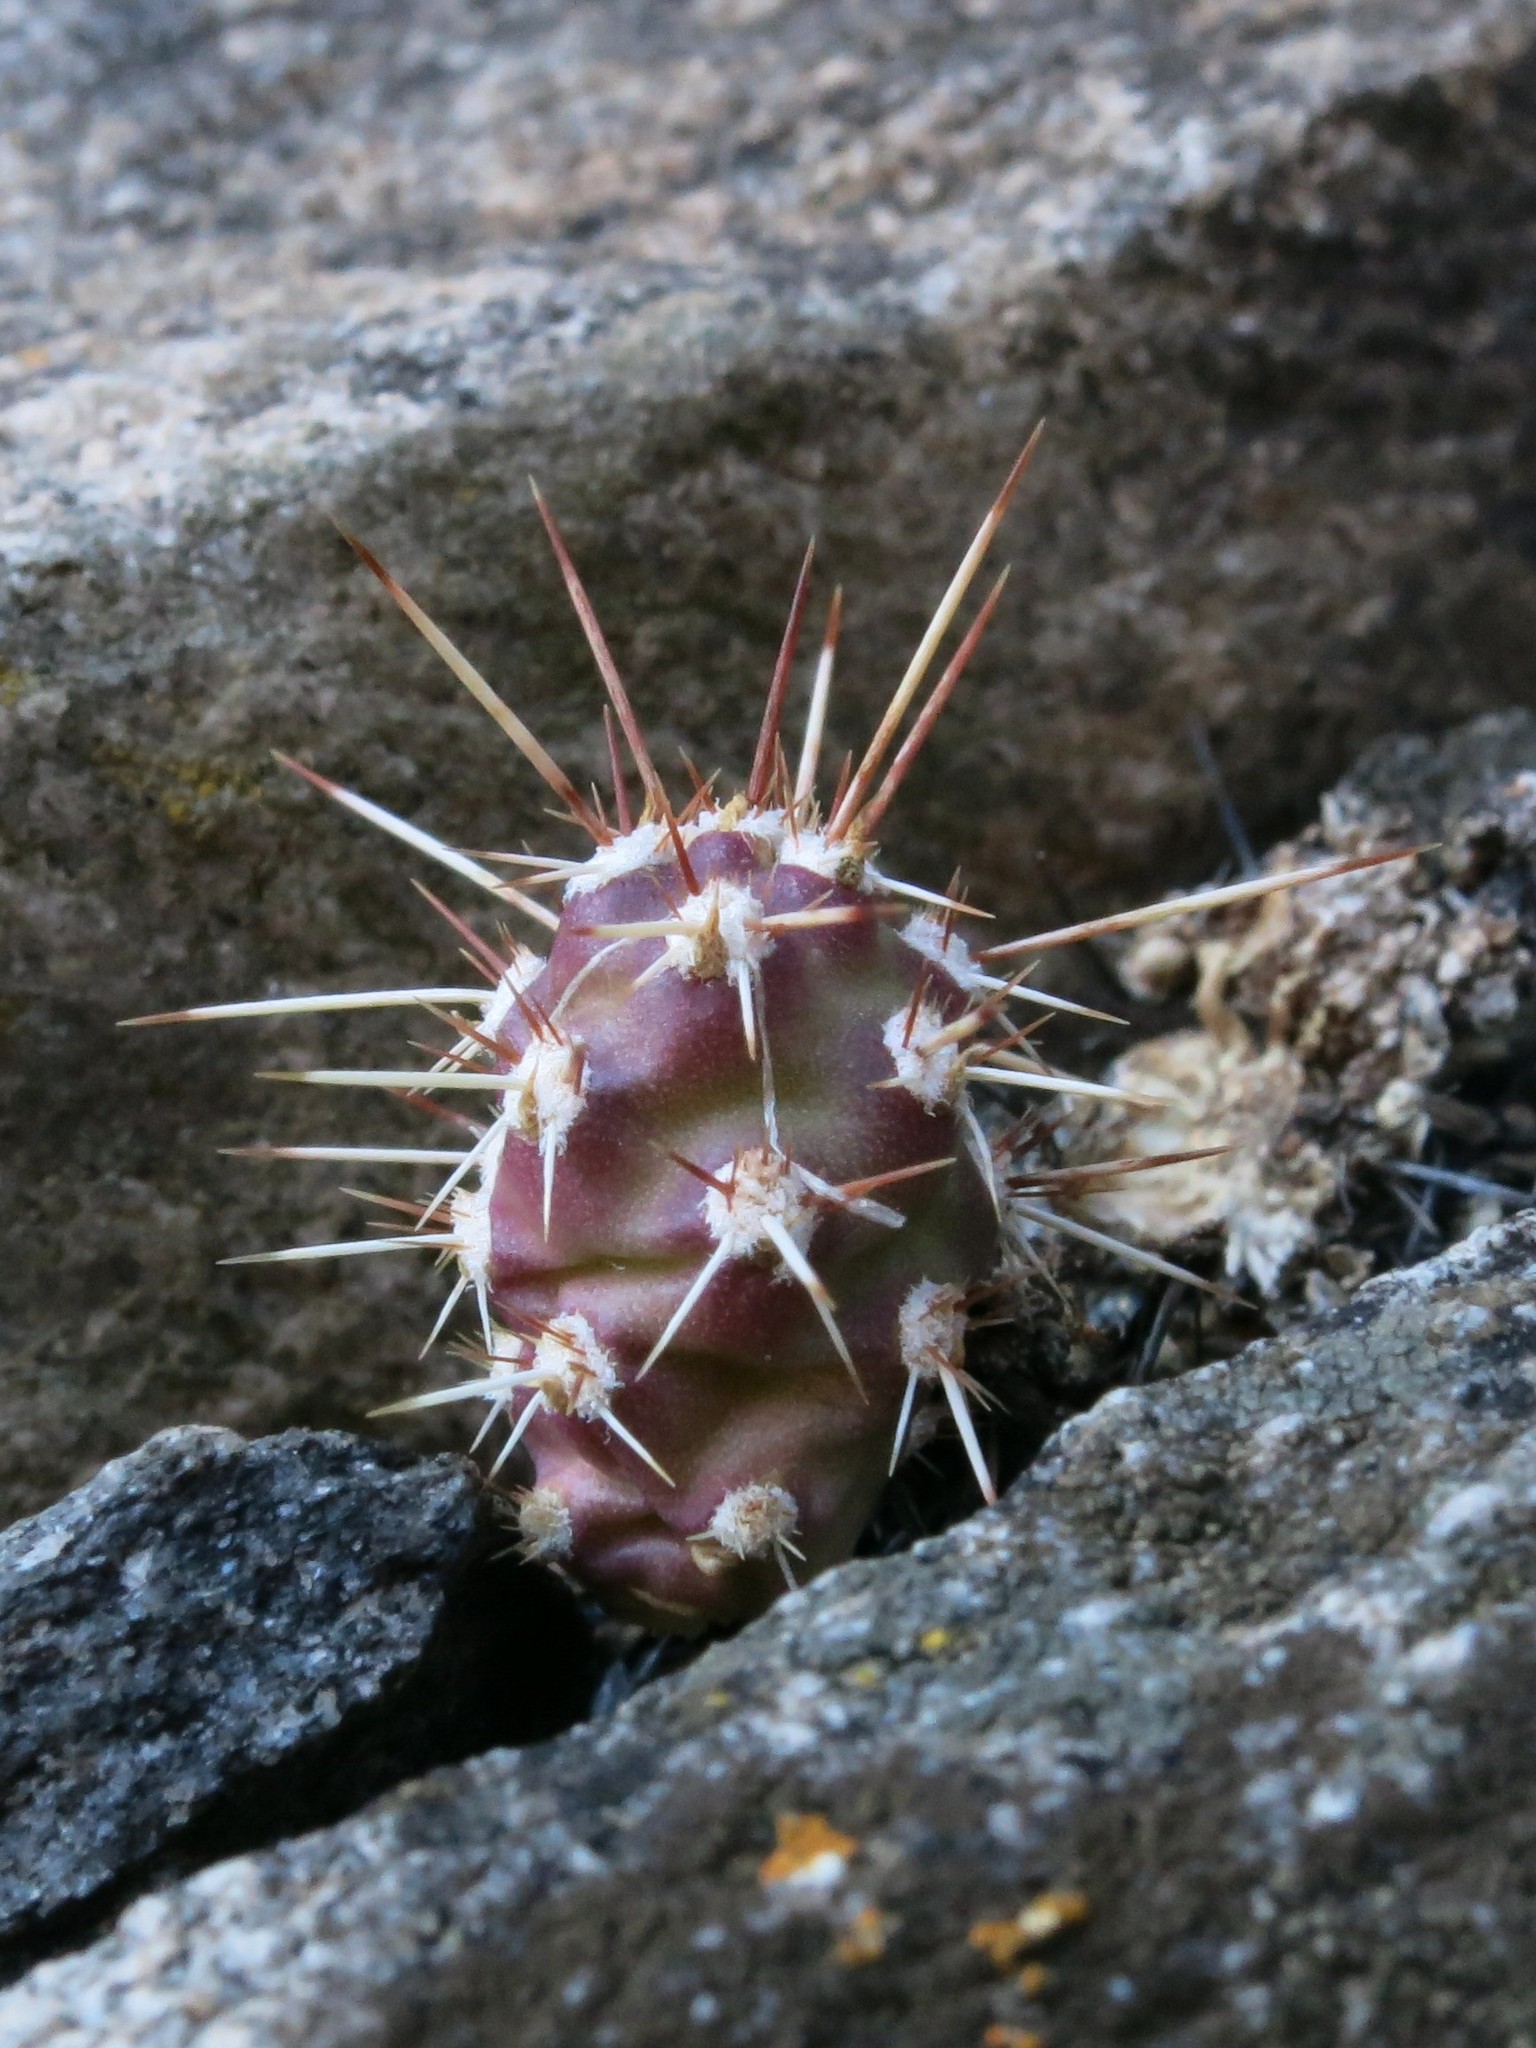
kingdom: Plantae
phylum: Tracheophyta
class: Magnoliopsida
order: Caryophyllales
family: Cactaceae
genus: Opuntia
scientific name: Opuntia fragilis
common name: Brittle cactus
